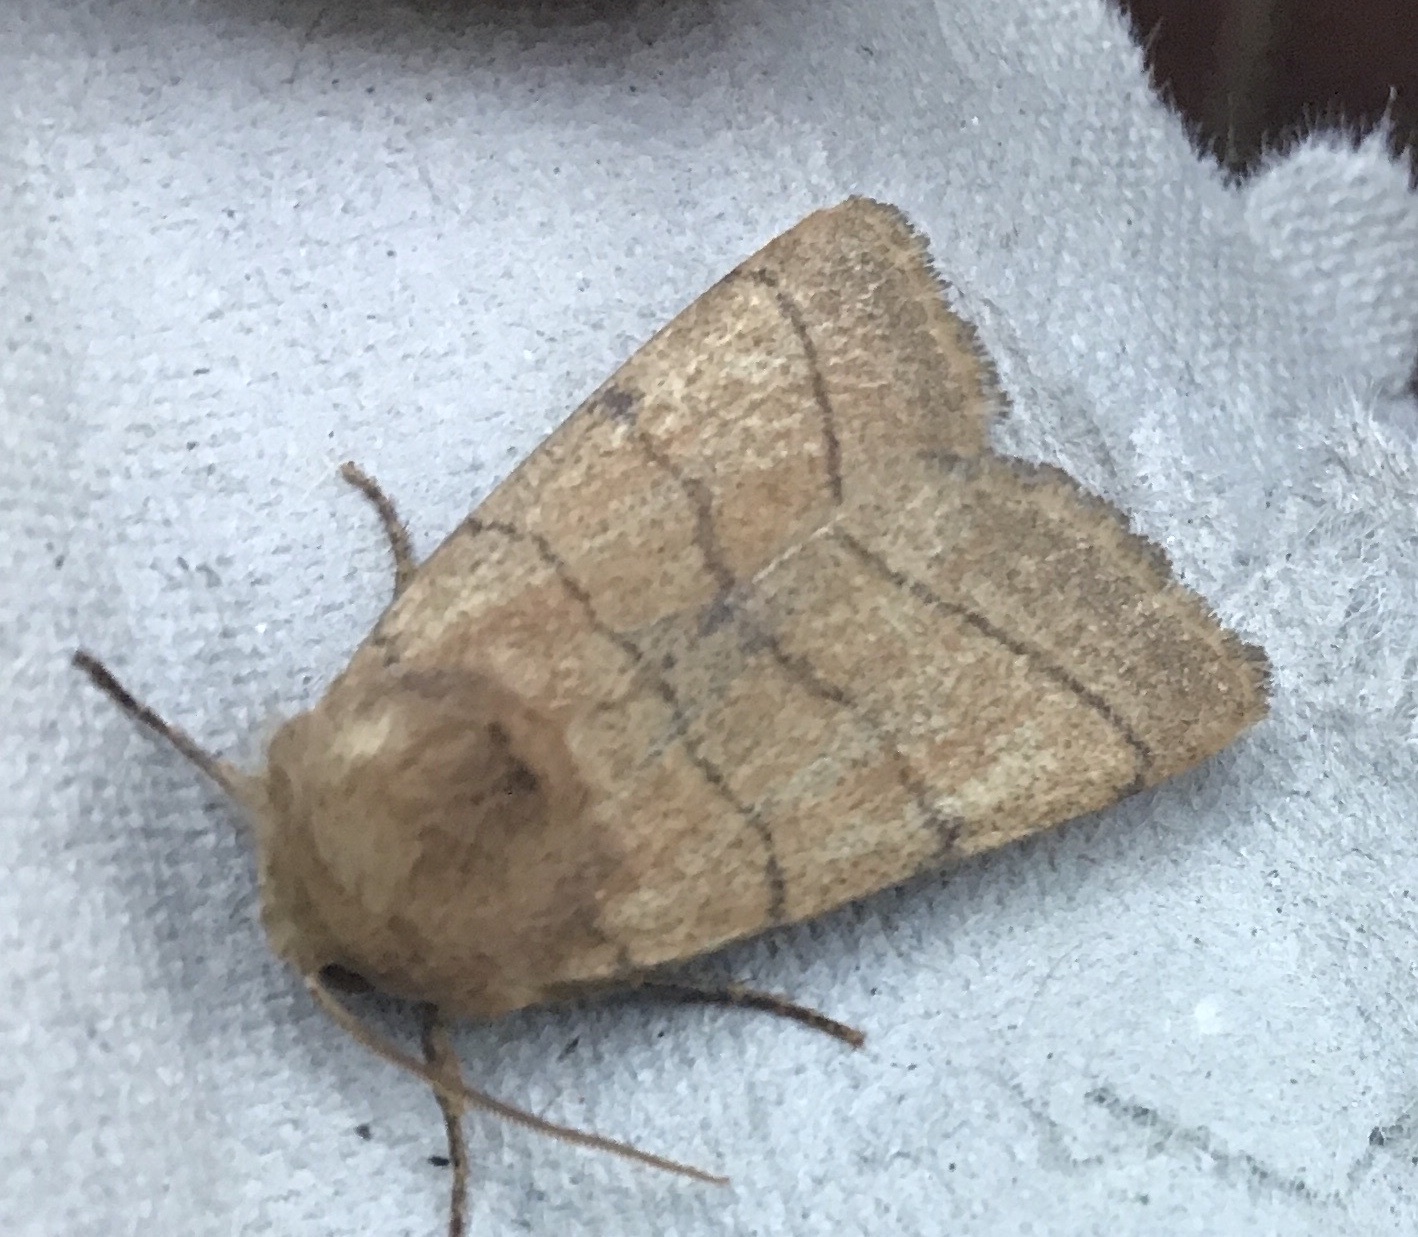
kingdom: Animalia
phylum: Arthropoda
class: Insecta
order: Lepidoptera
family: Noctuidae
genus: Charanyca
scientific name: Charanyca trigrammica
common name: Treble lines
